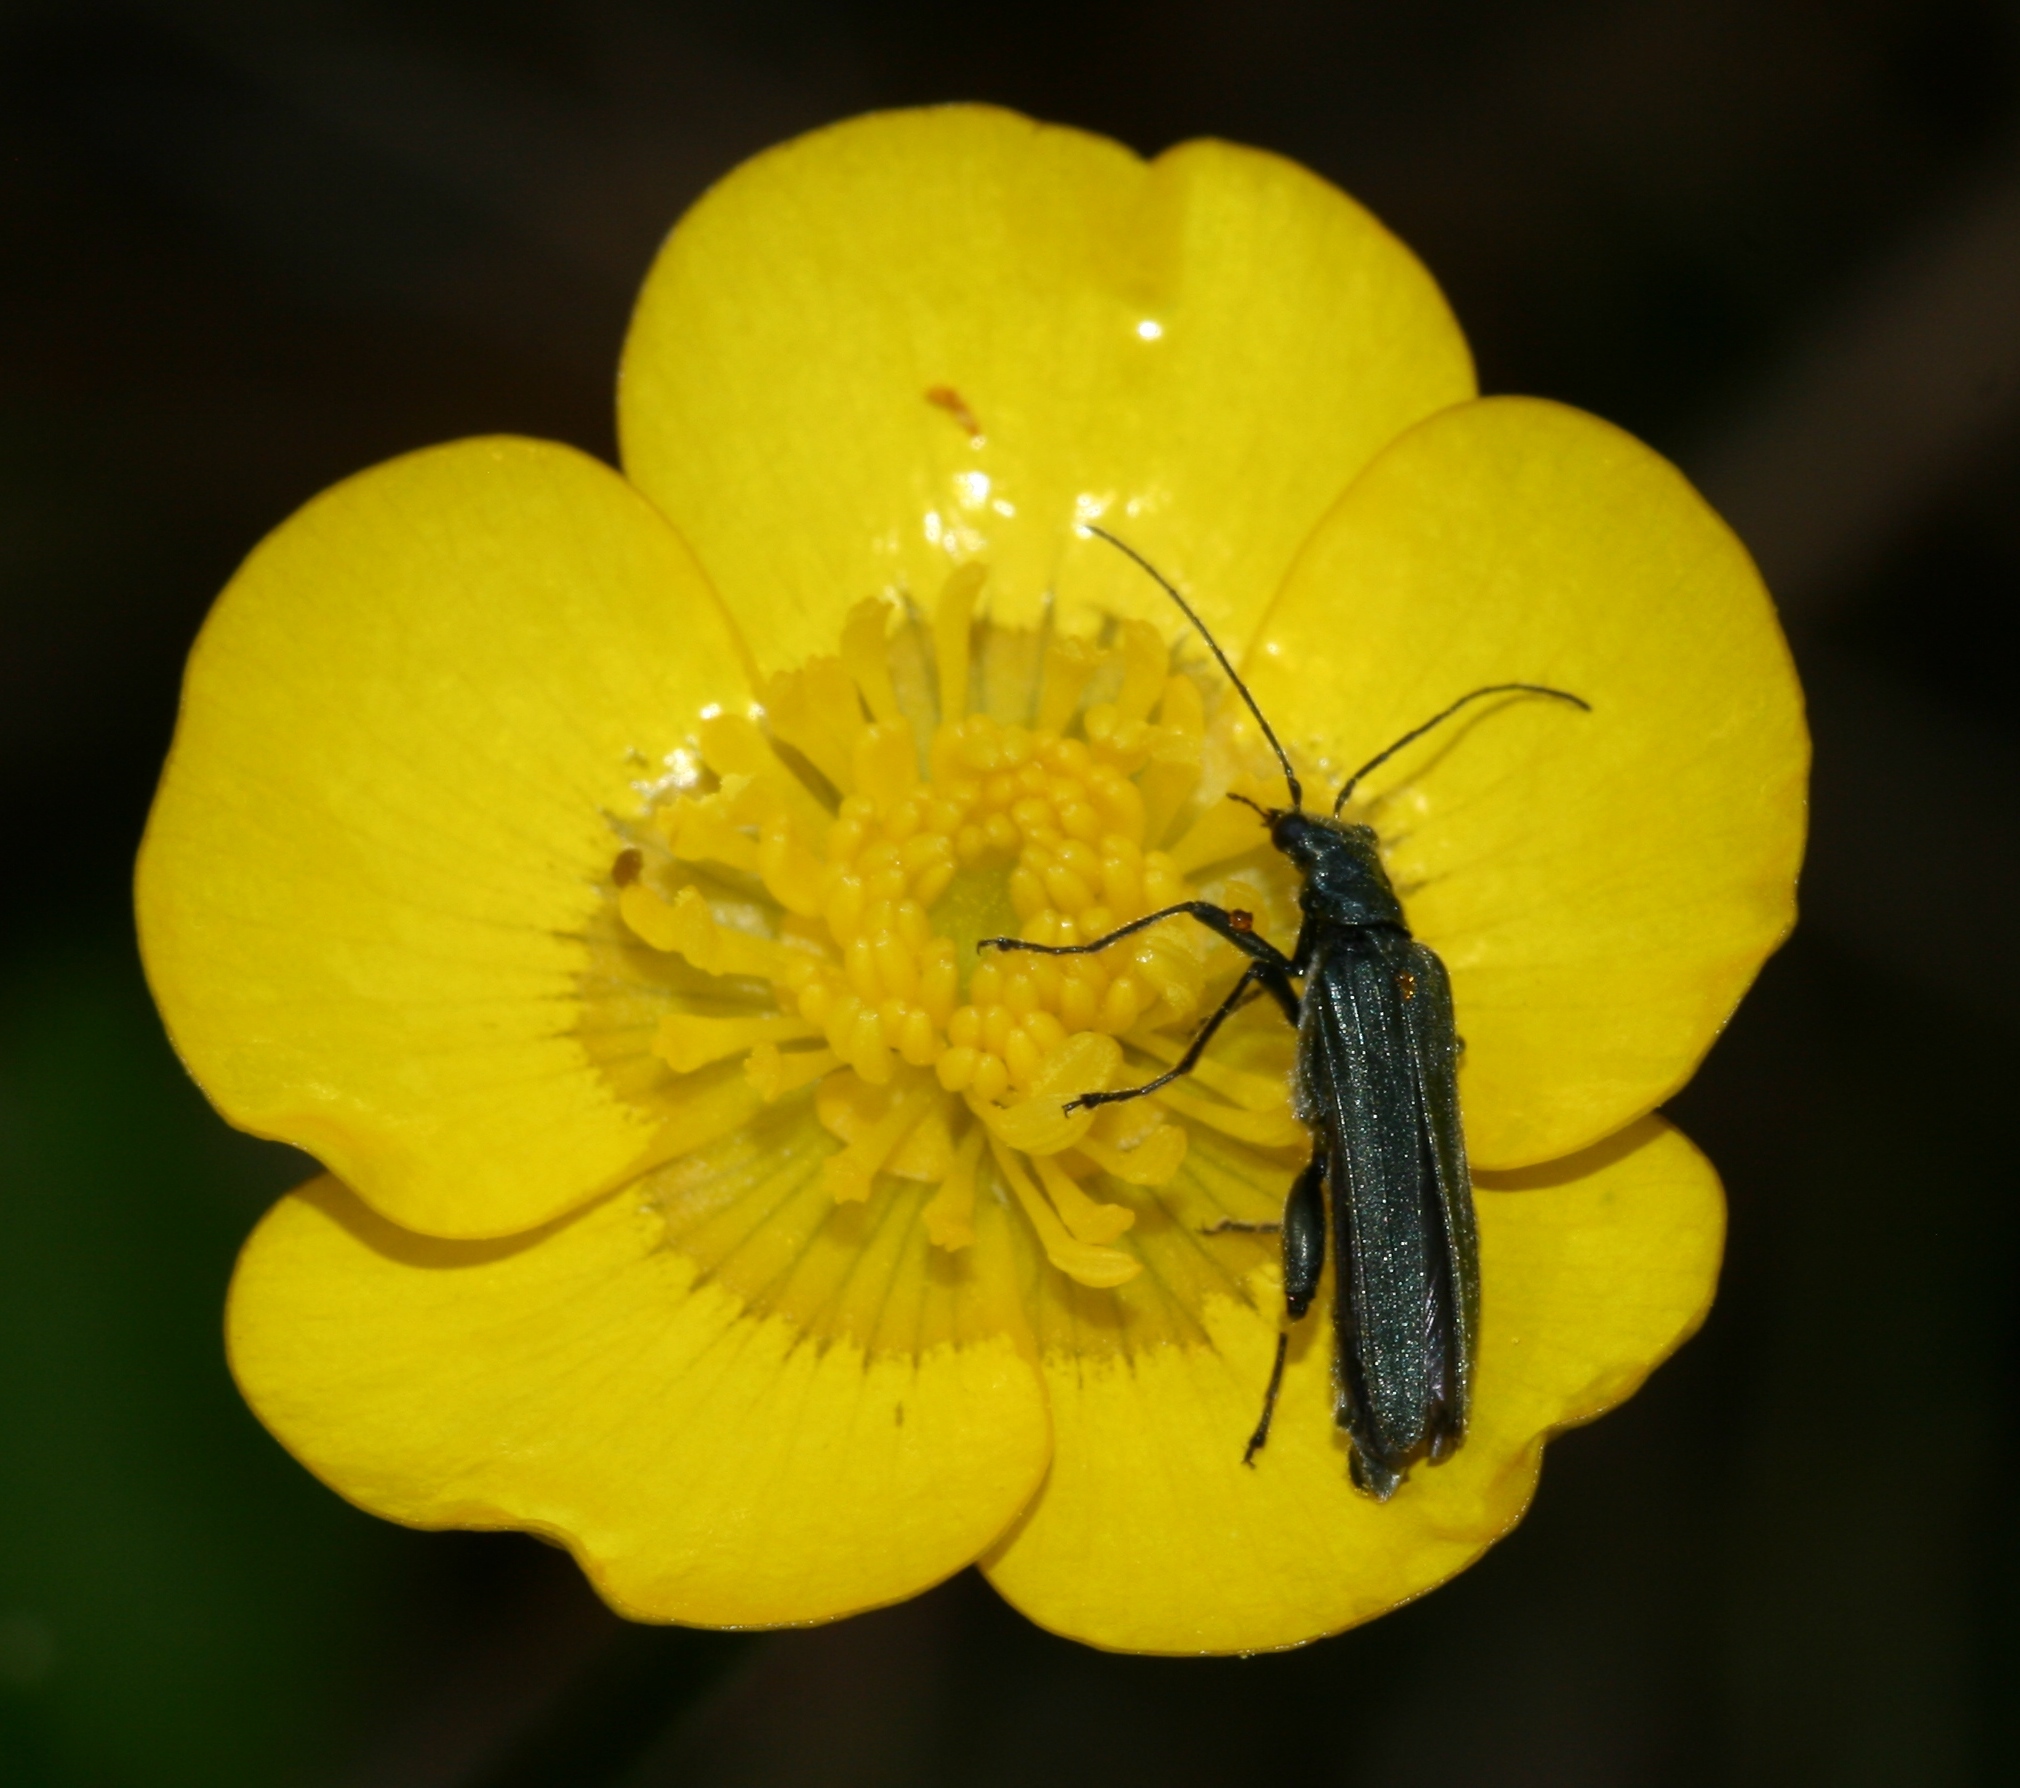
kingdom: Animalia
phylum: Arthropoda
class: Insecta
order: Coleoptera
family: Oedemeridae
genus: Oedemera
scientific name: Oedemera virescens
